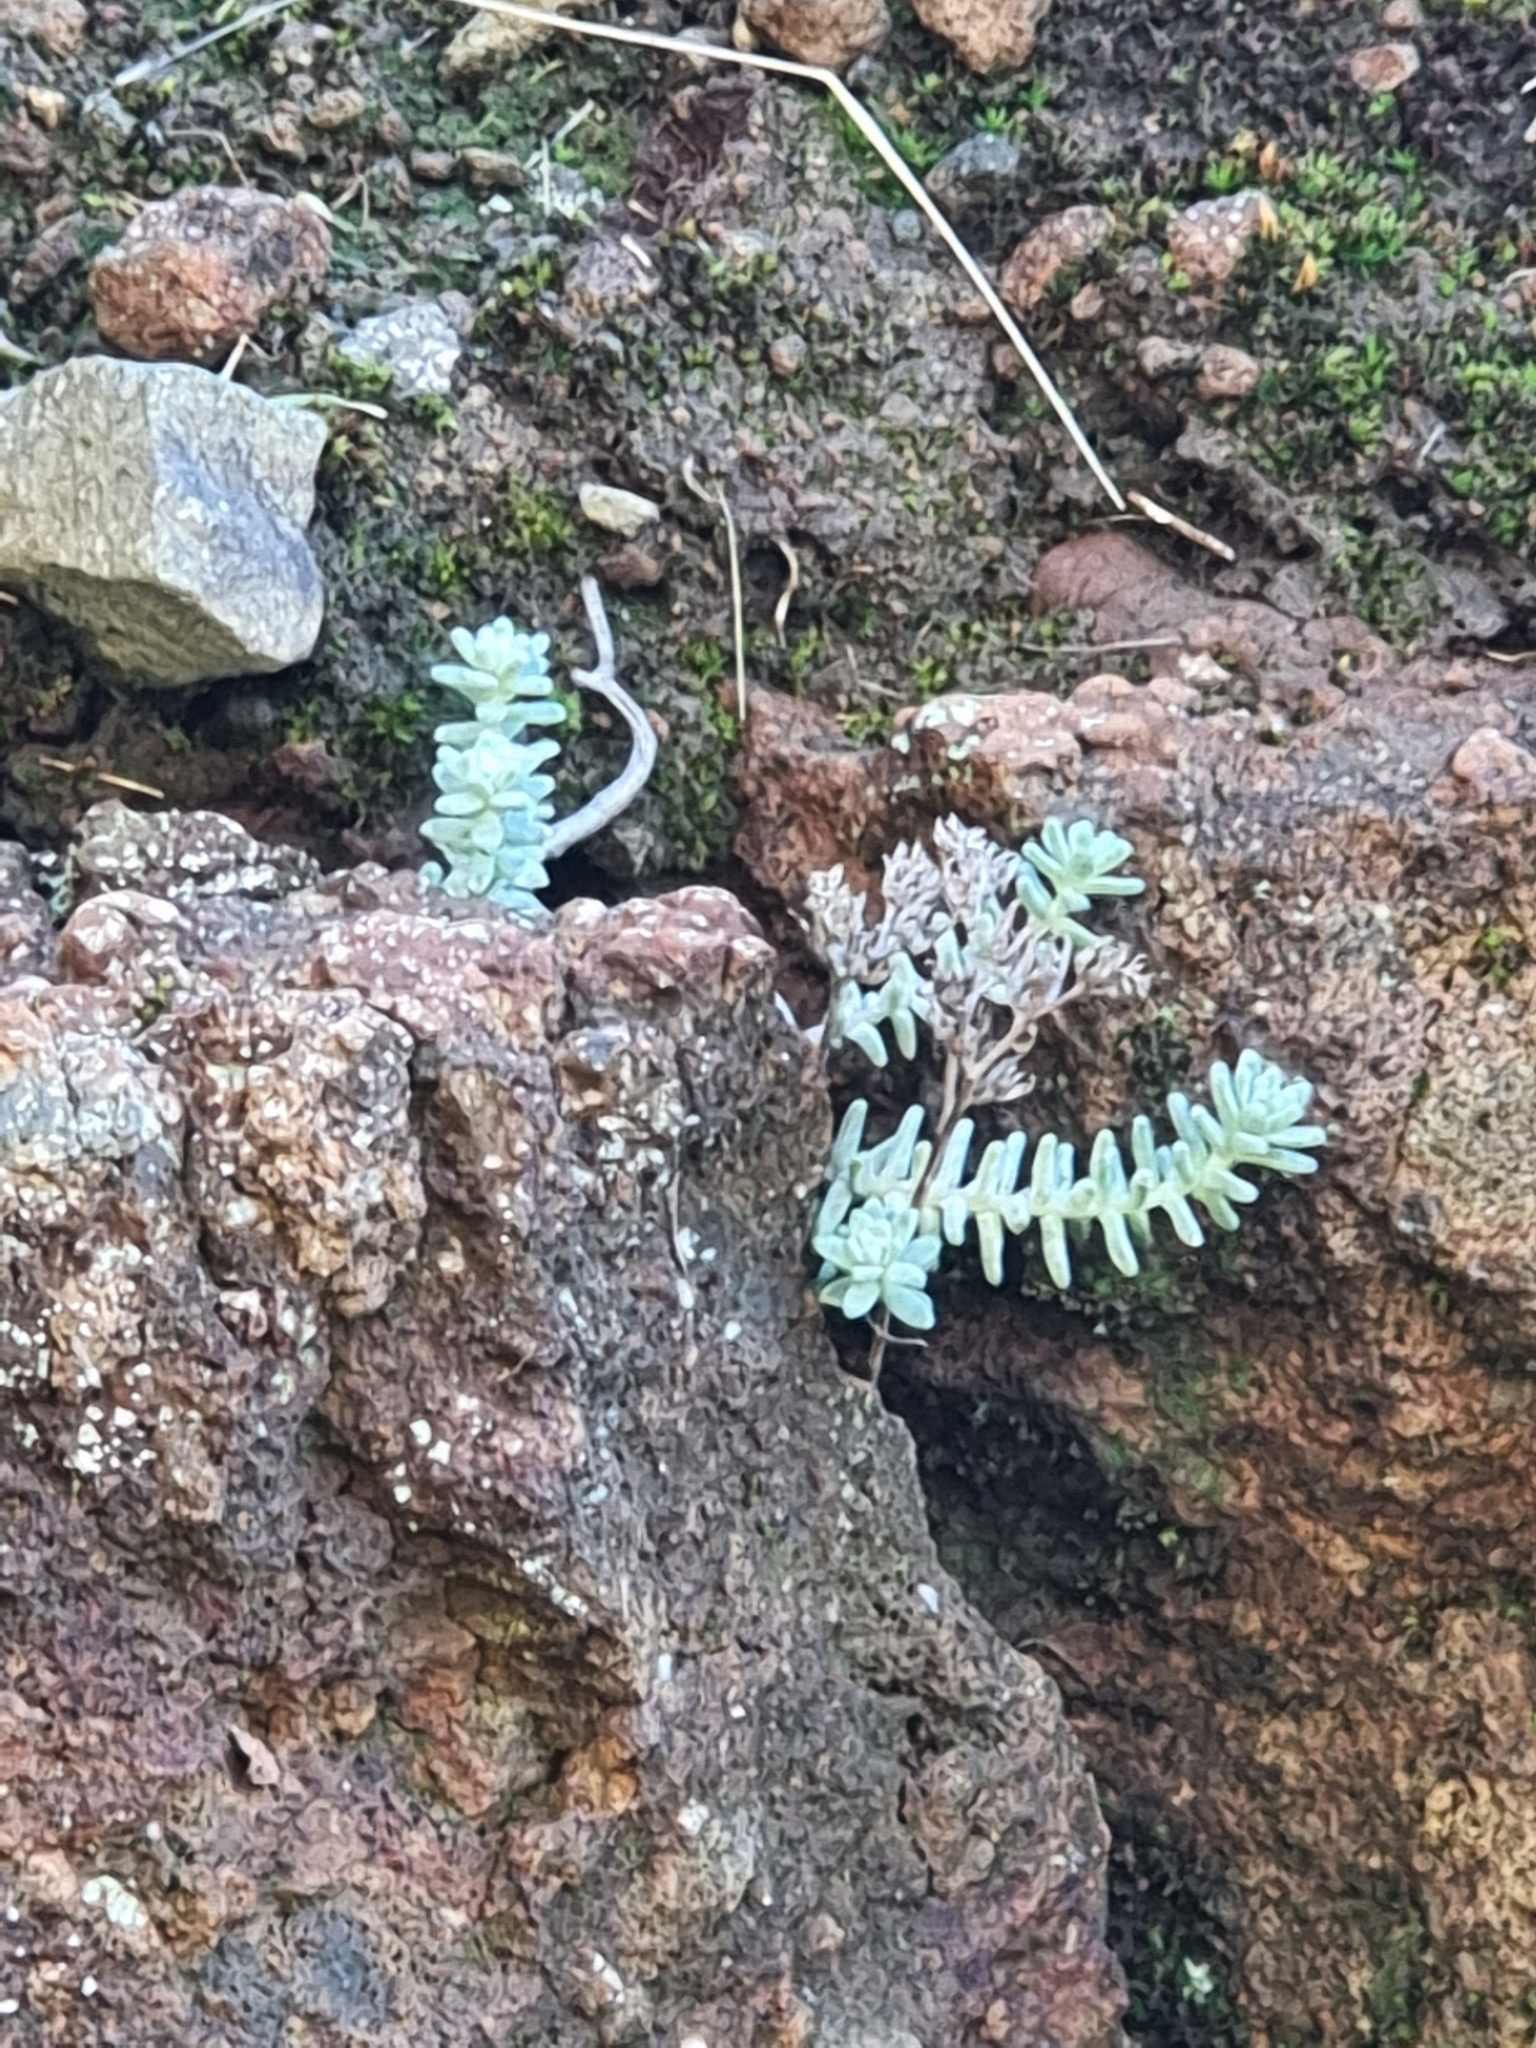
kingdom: Plantae
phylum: Tracheophyta
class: Magnoliopsida
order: Saxifragales
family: Crassulaceae
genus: Sedum
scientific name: Sedum farinosum
